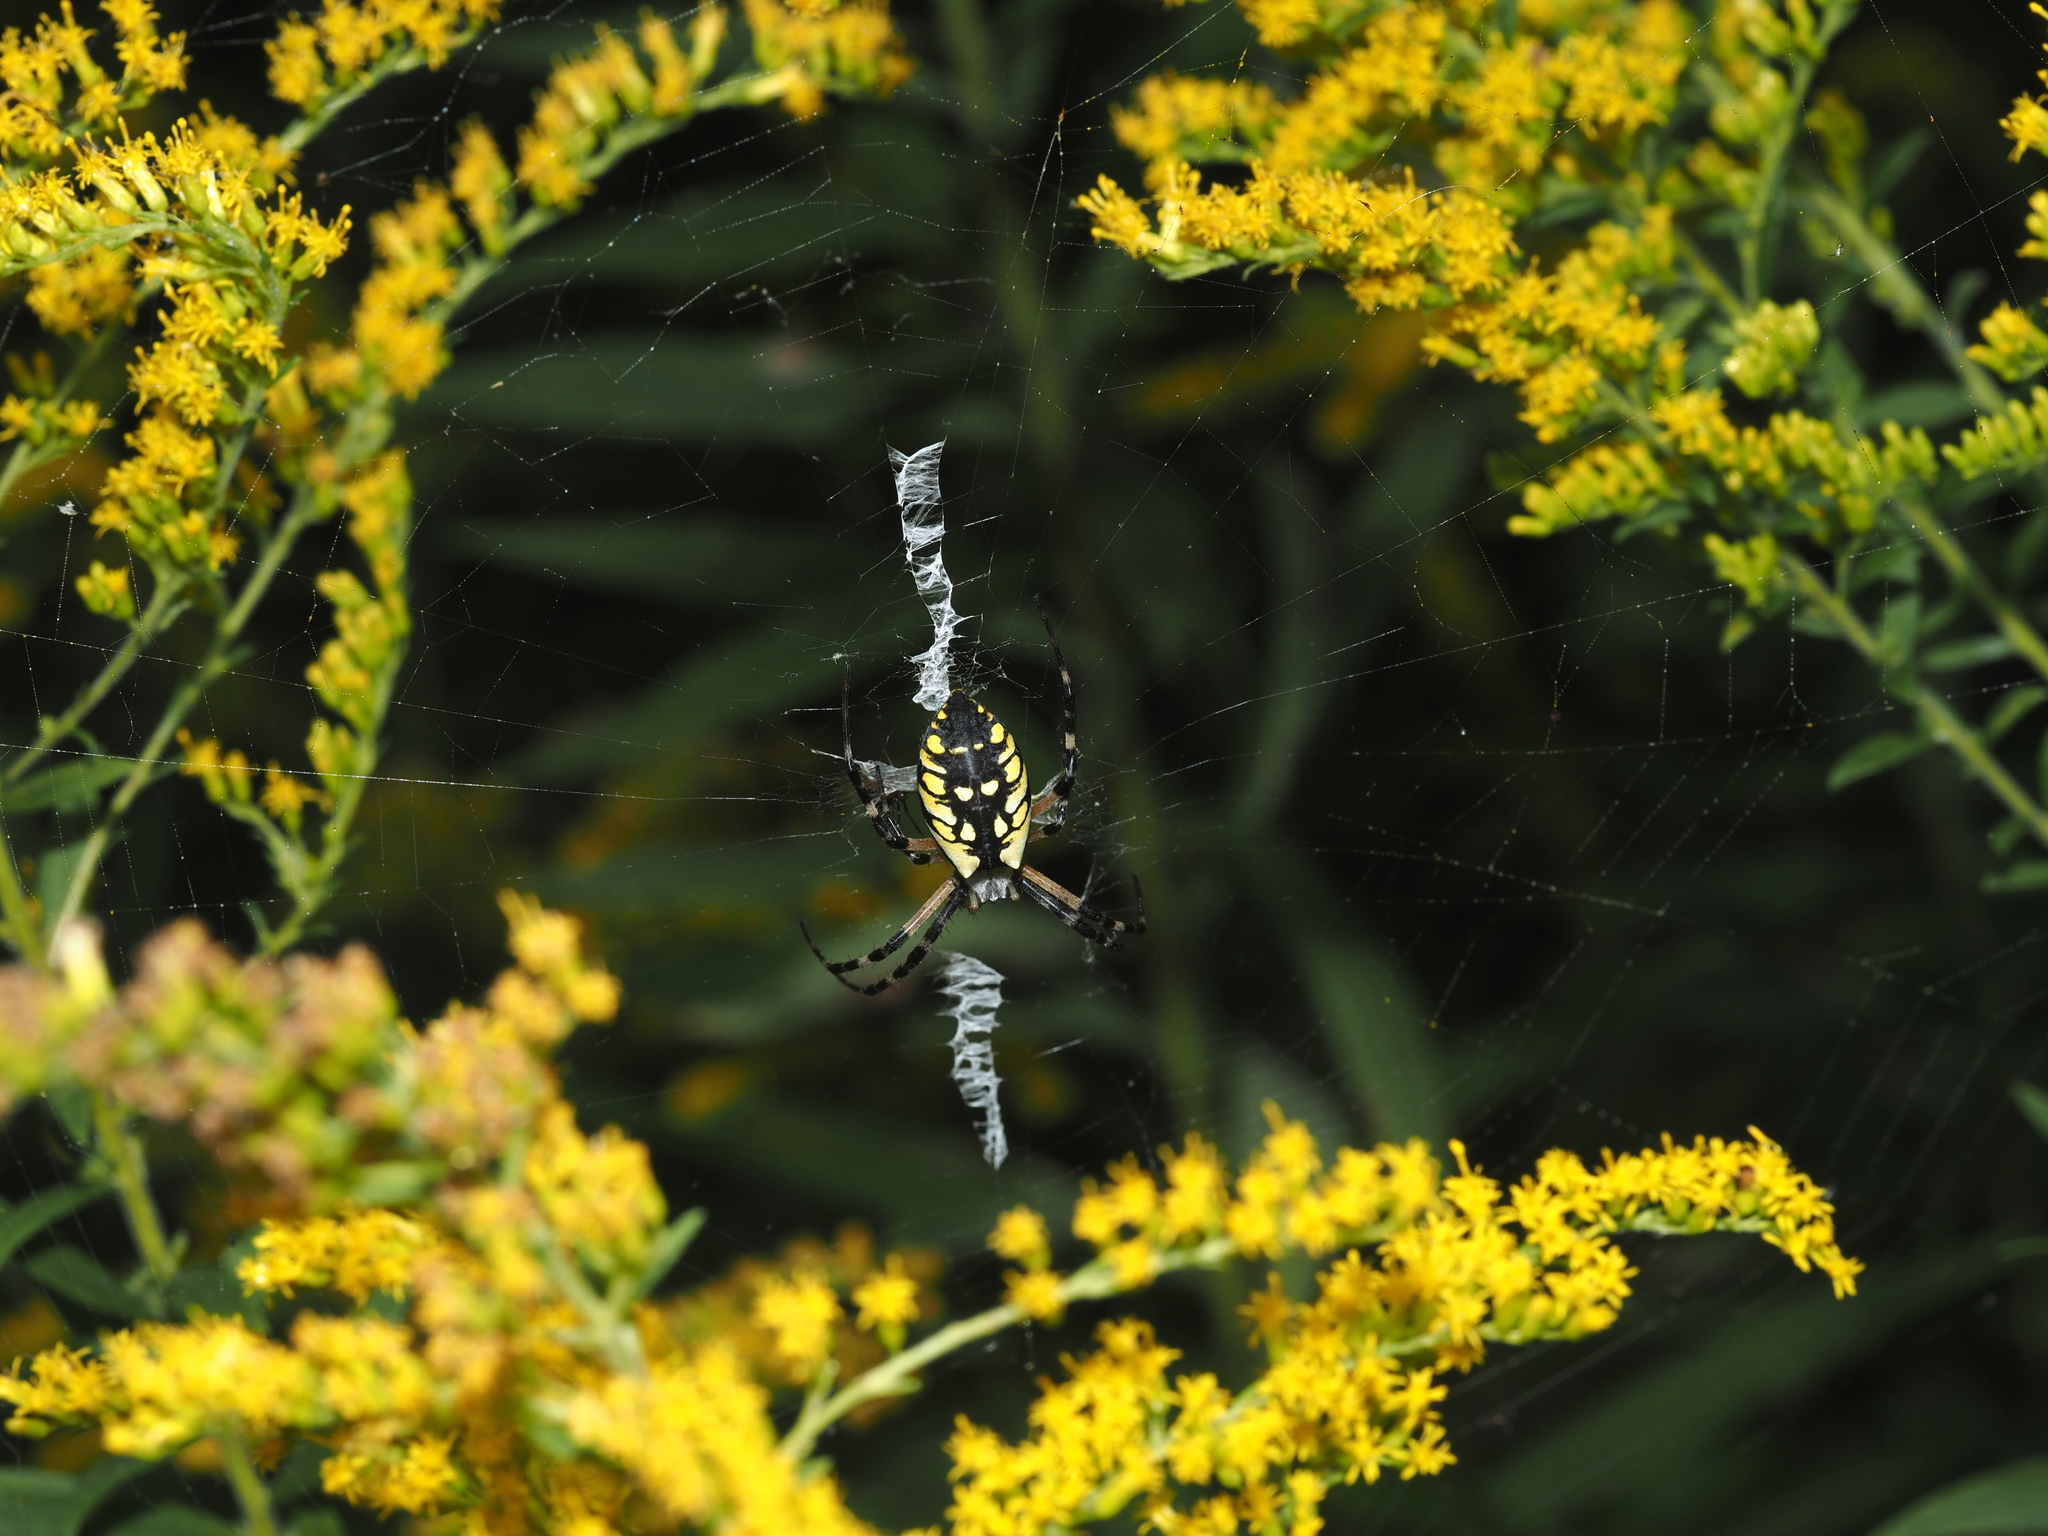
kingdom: Animalia
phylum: Arthropoda
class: Arachnida
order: Araneae
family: Araneidae
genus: Argiope
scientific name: Argiope aurantia
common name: Orb weavers
